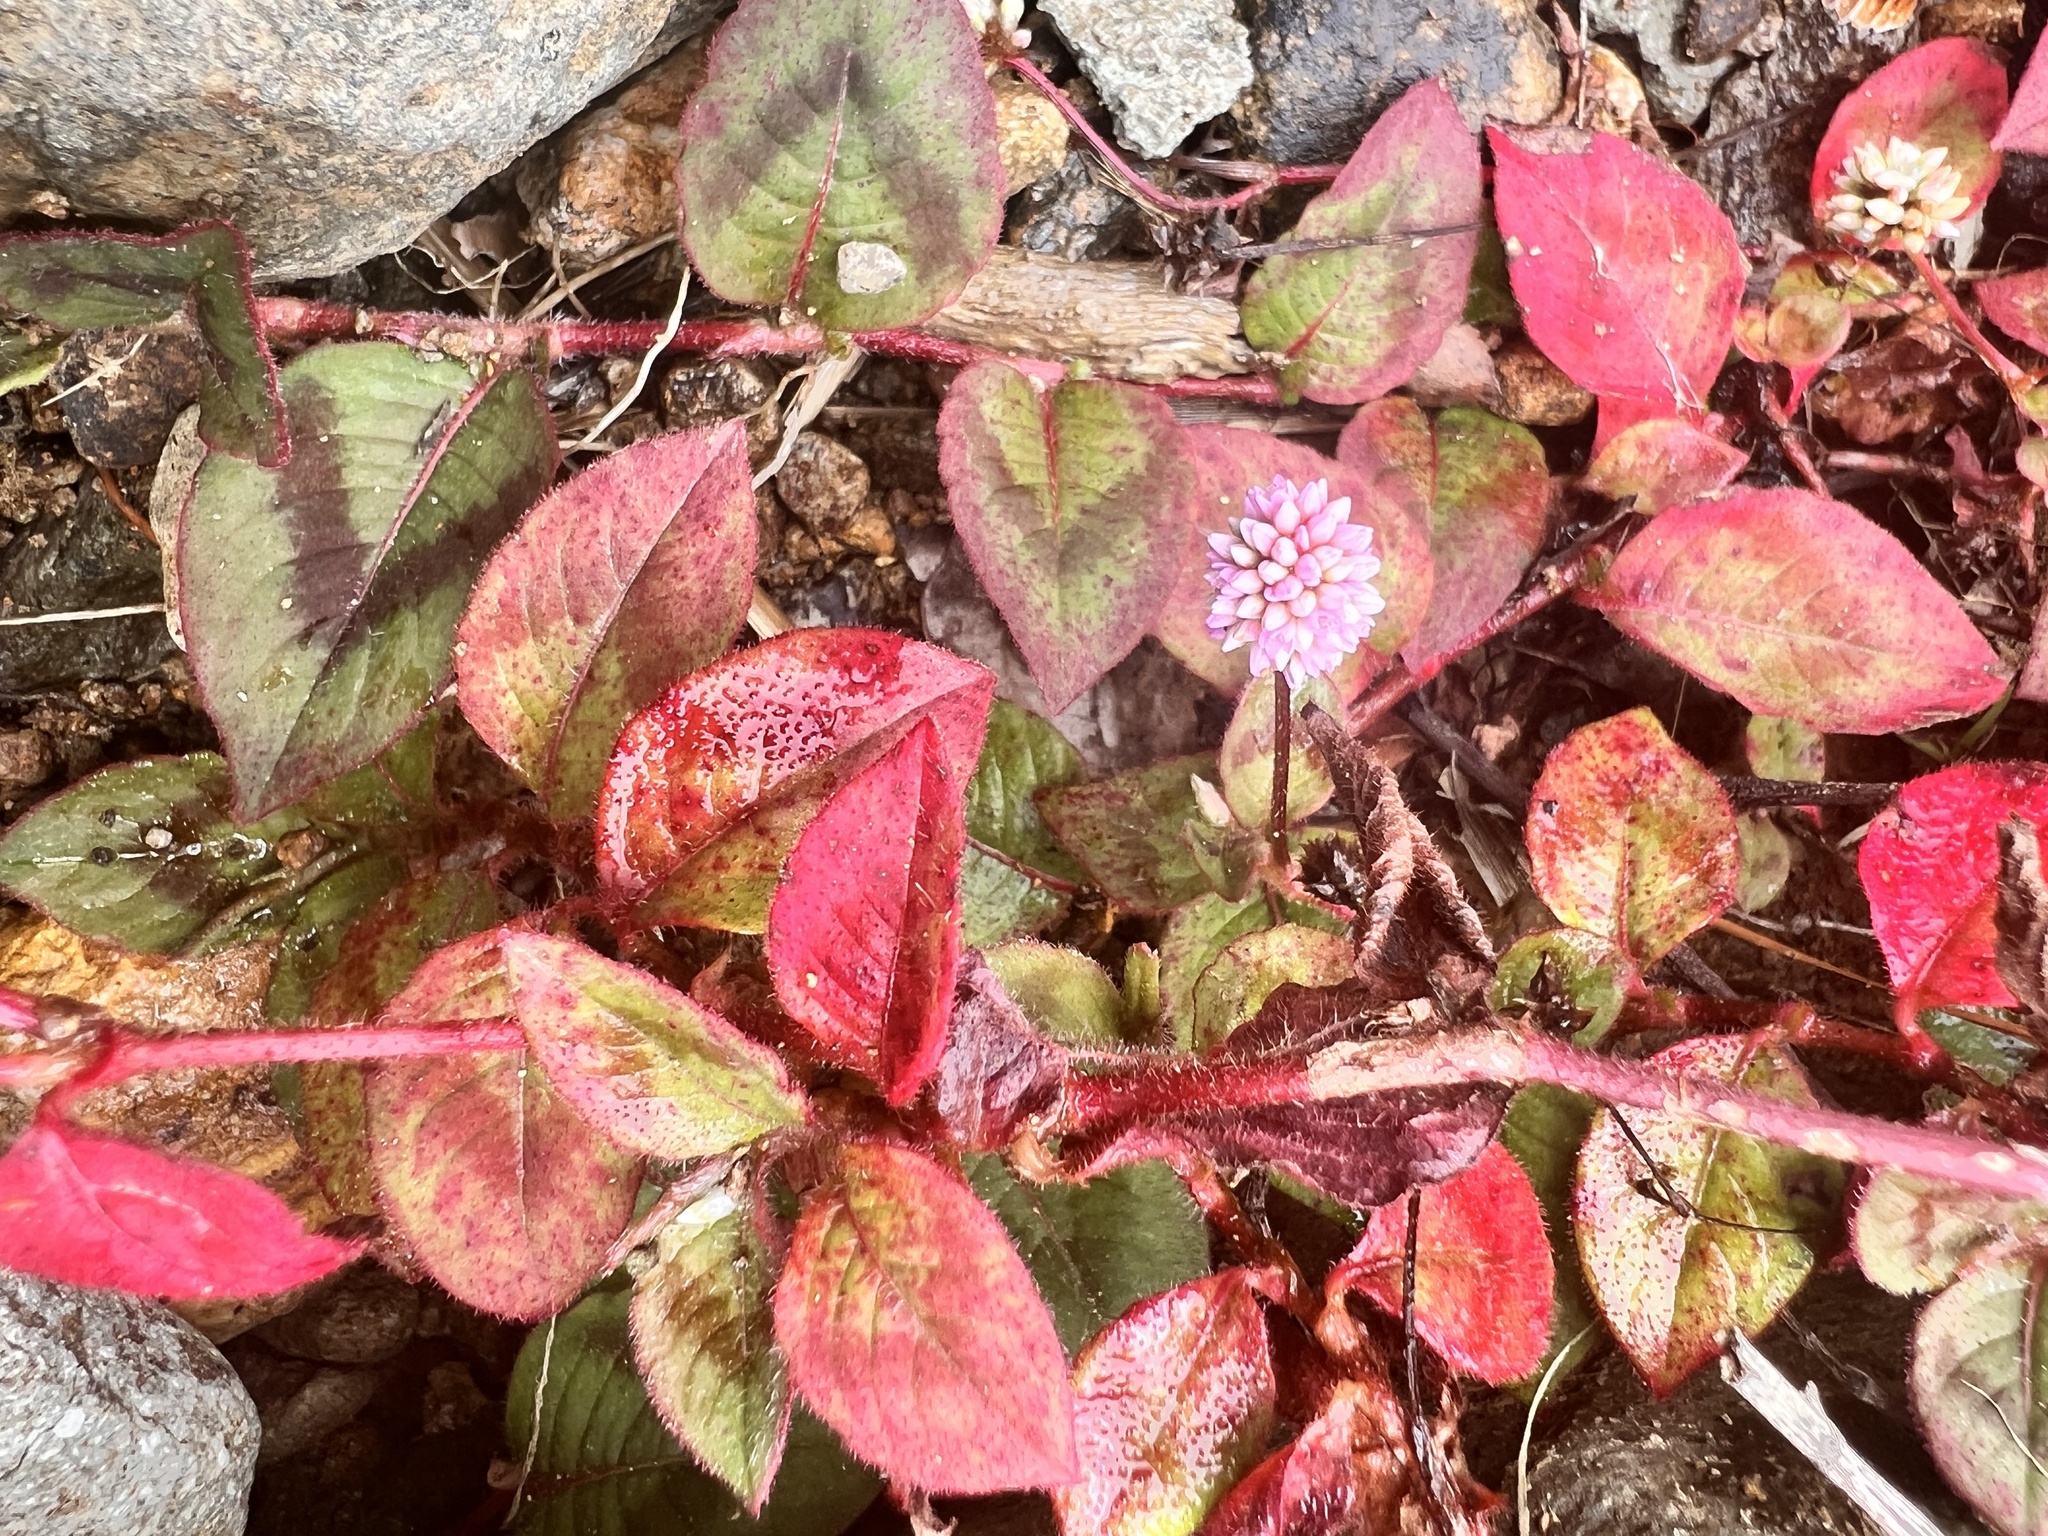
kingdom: Plantae
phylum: Tracheophyta
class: Magnoliopsida
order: Caryophyllales
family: Polygonaceae
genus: Persicaria
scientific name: Persicaria capitata
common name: Pinkhead smartweed
